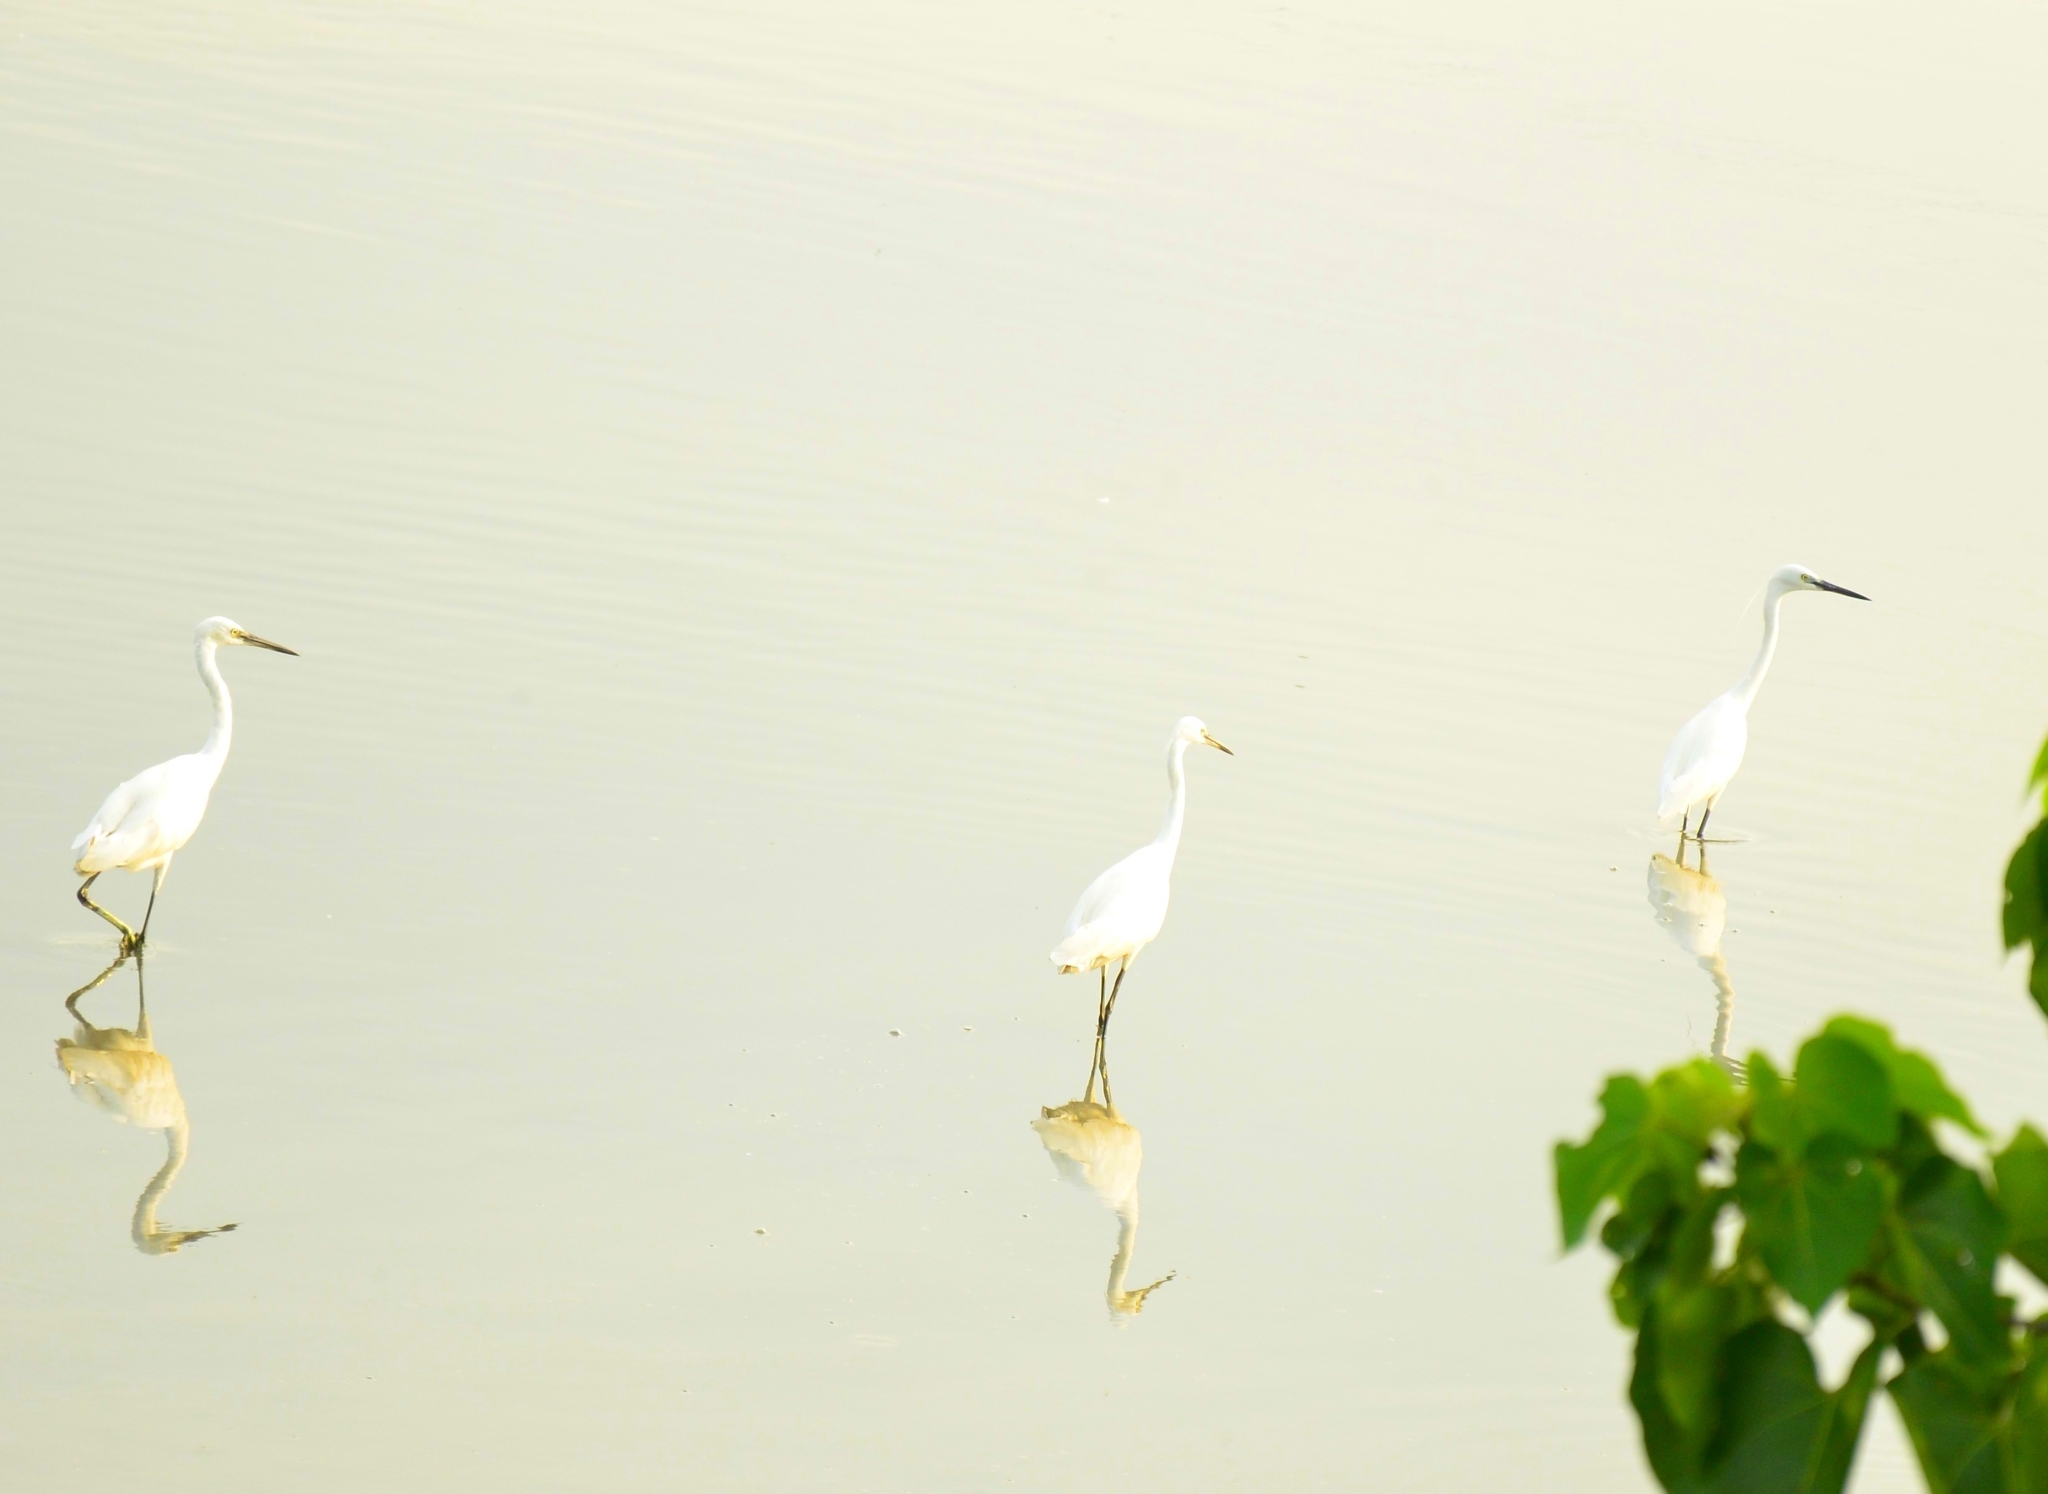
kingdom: Animalia
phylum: Chordata
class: Aves
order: Pelecaniformes
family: Ardeidae
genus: Egretta
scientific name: Egretta garzetta
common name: Little egret
